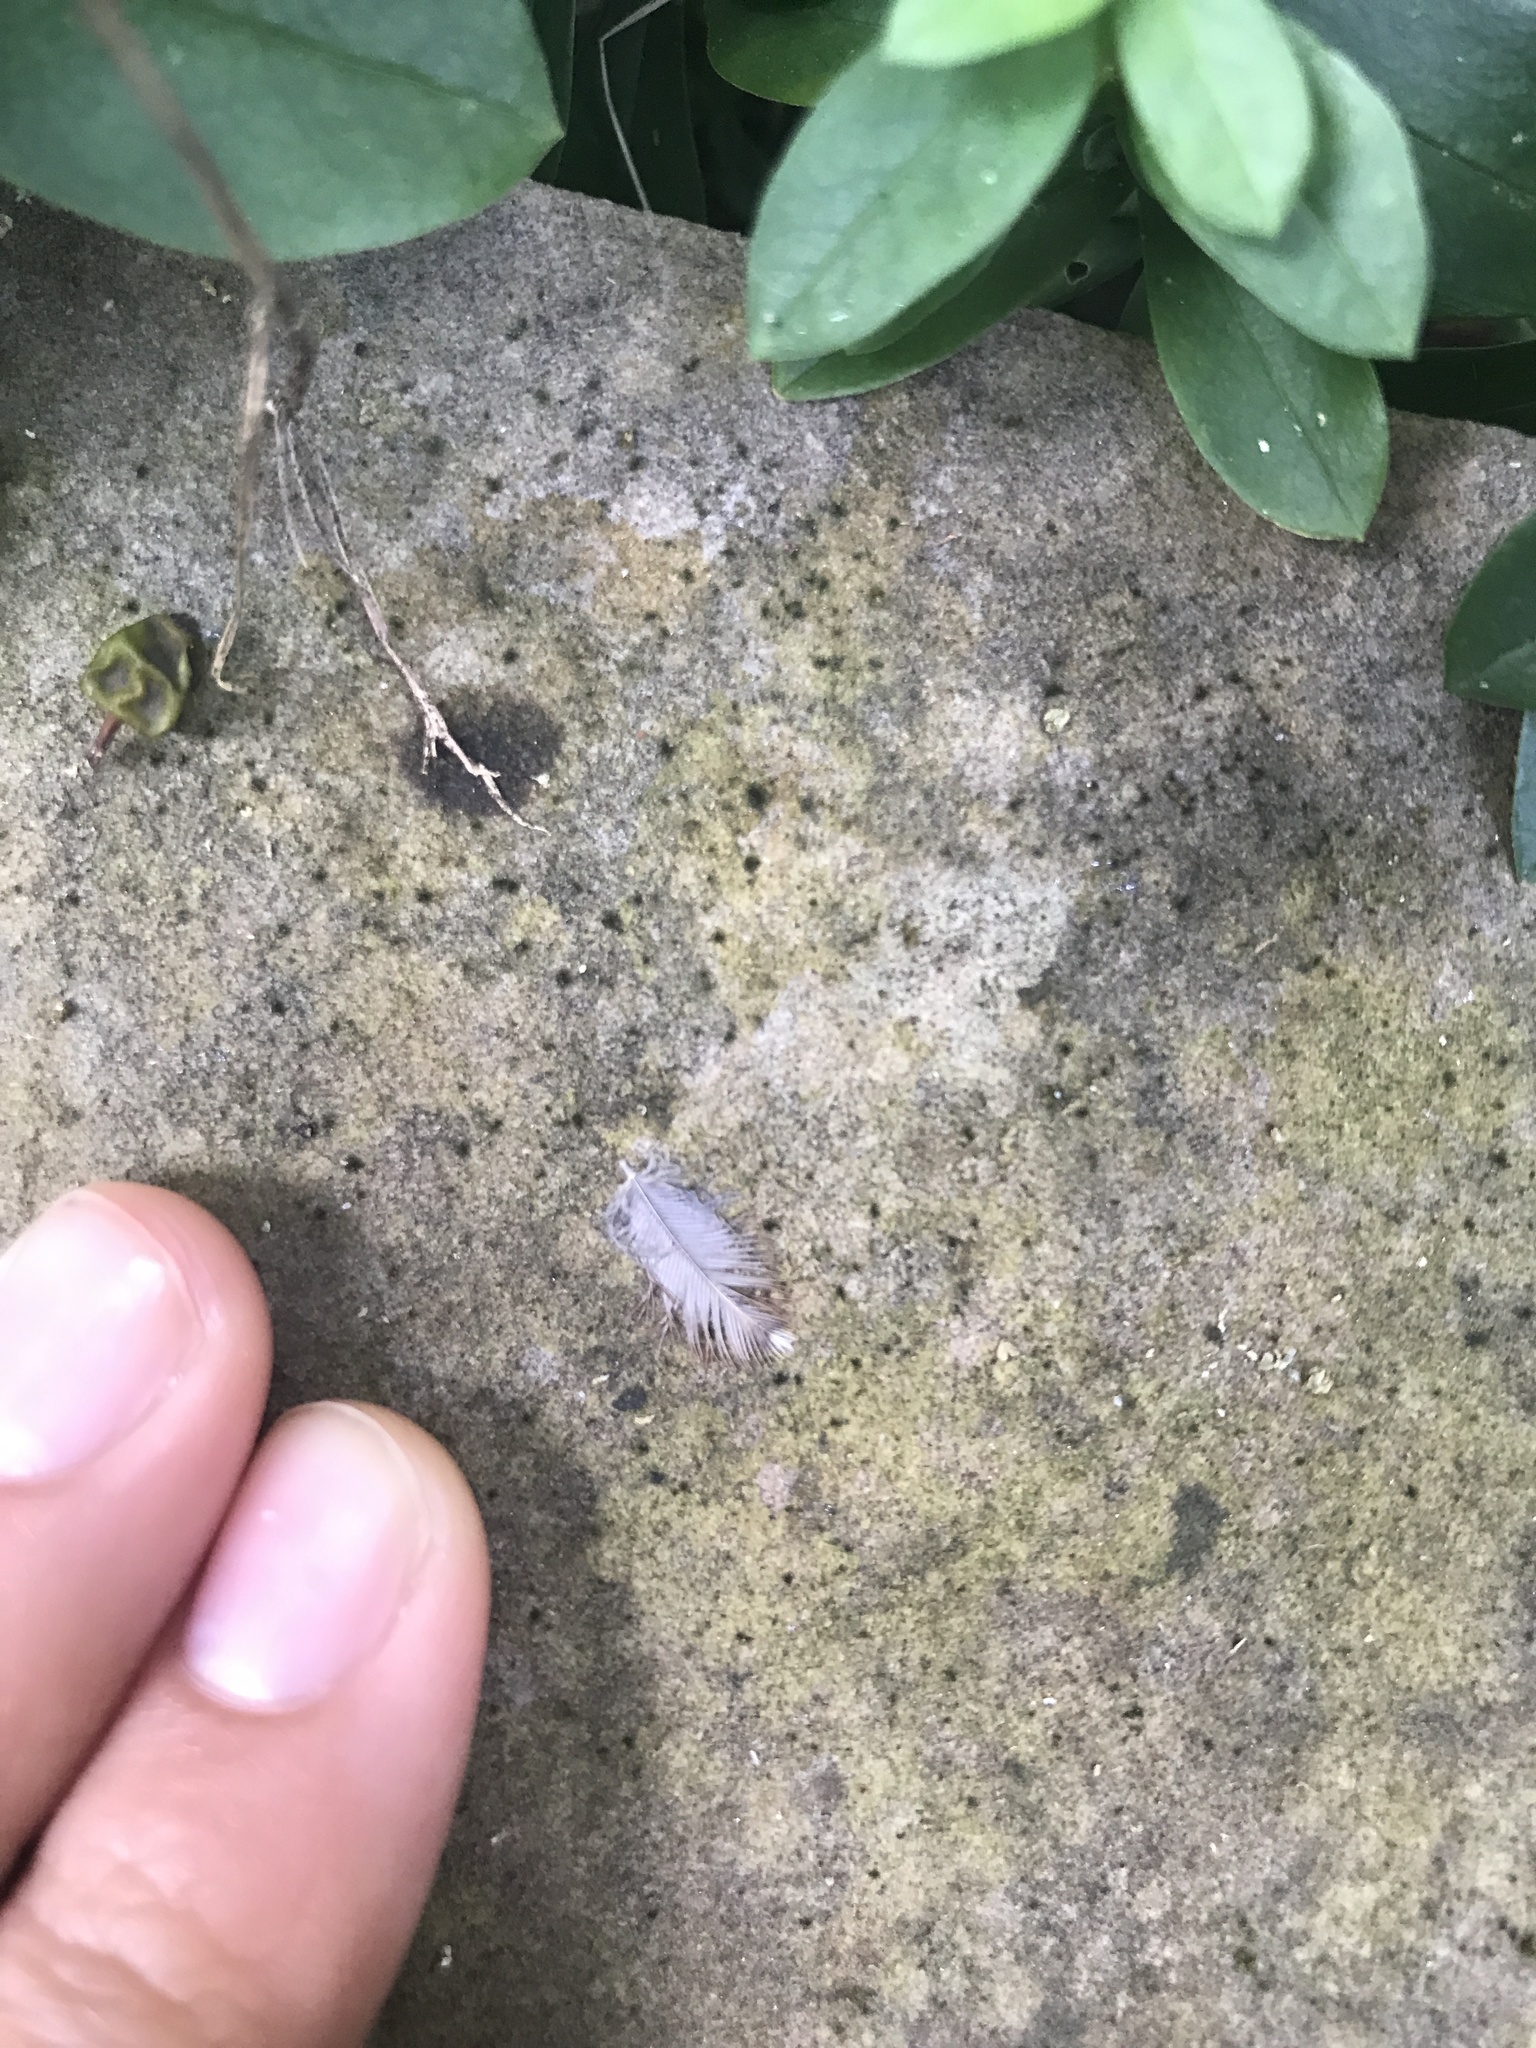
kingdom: Animalia
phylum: Chordata
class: Aves
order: Passeriformes
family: Troglodytidae
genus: Thryothorus
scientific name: Thryothorus ludovicianus
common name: Carolina wren
